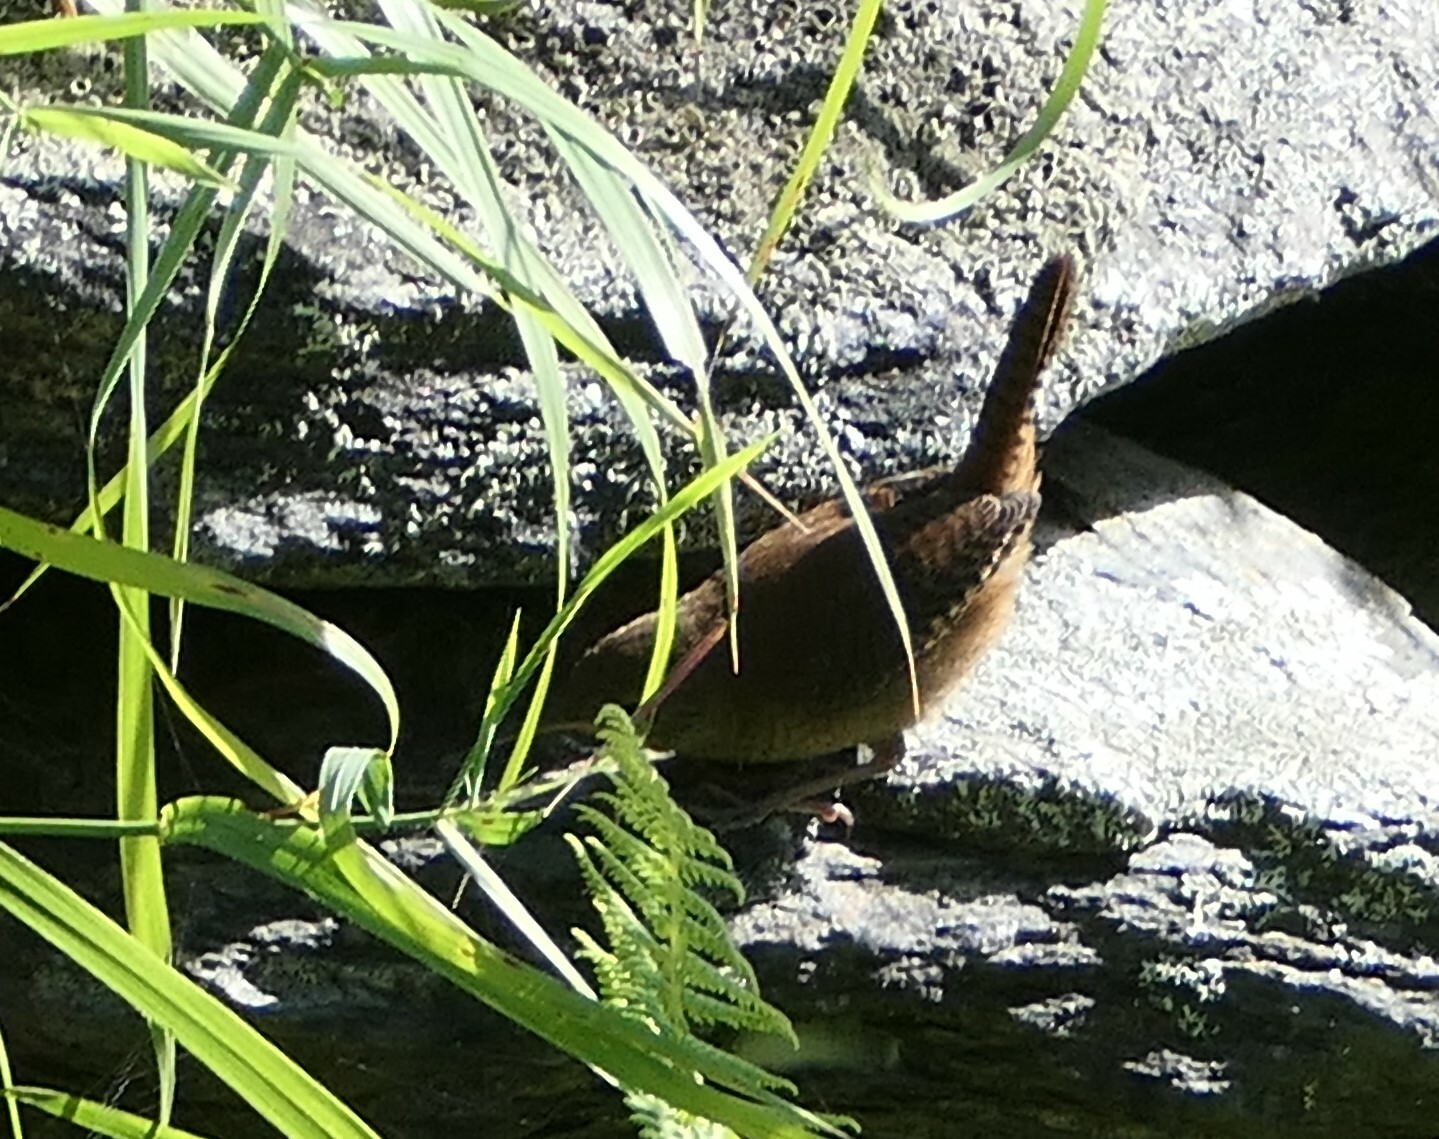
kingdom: Animalia
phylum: Chordata
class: Aves
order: Passeriformes
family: Troglodytidae
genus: Troglodytes
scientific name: Troglodytes aedon
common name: House wren
